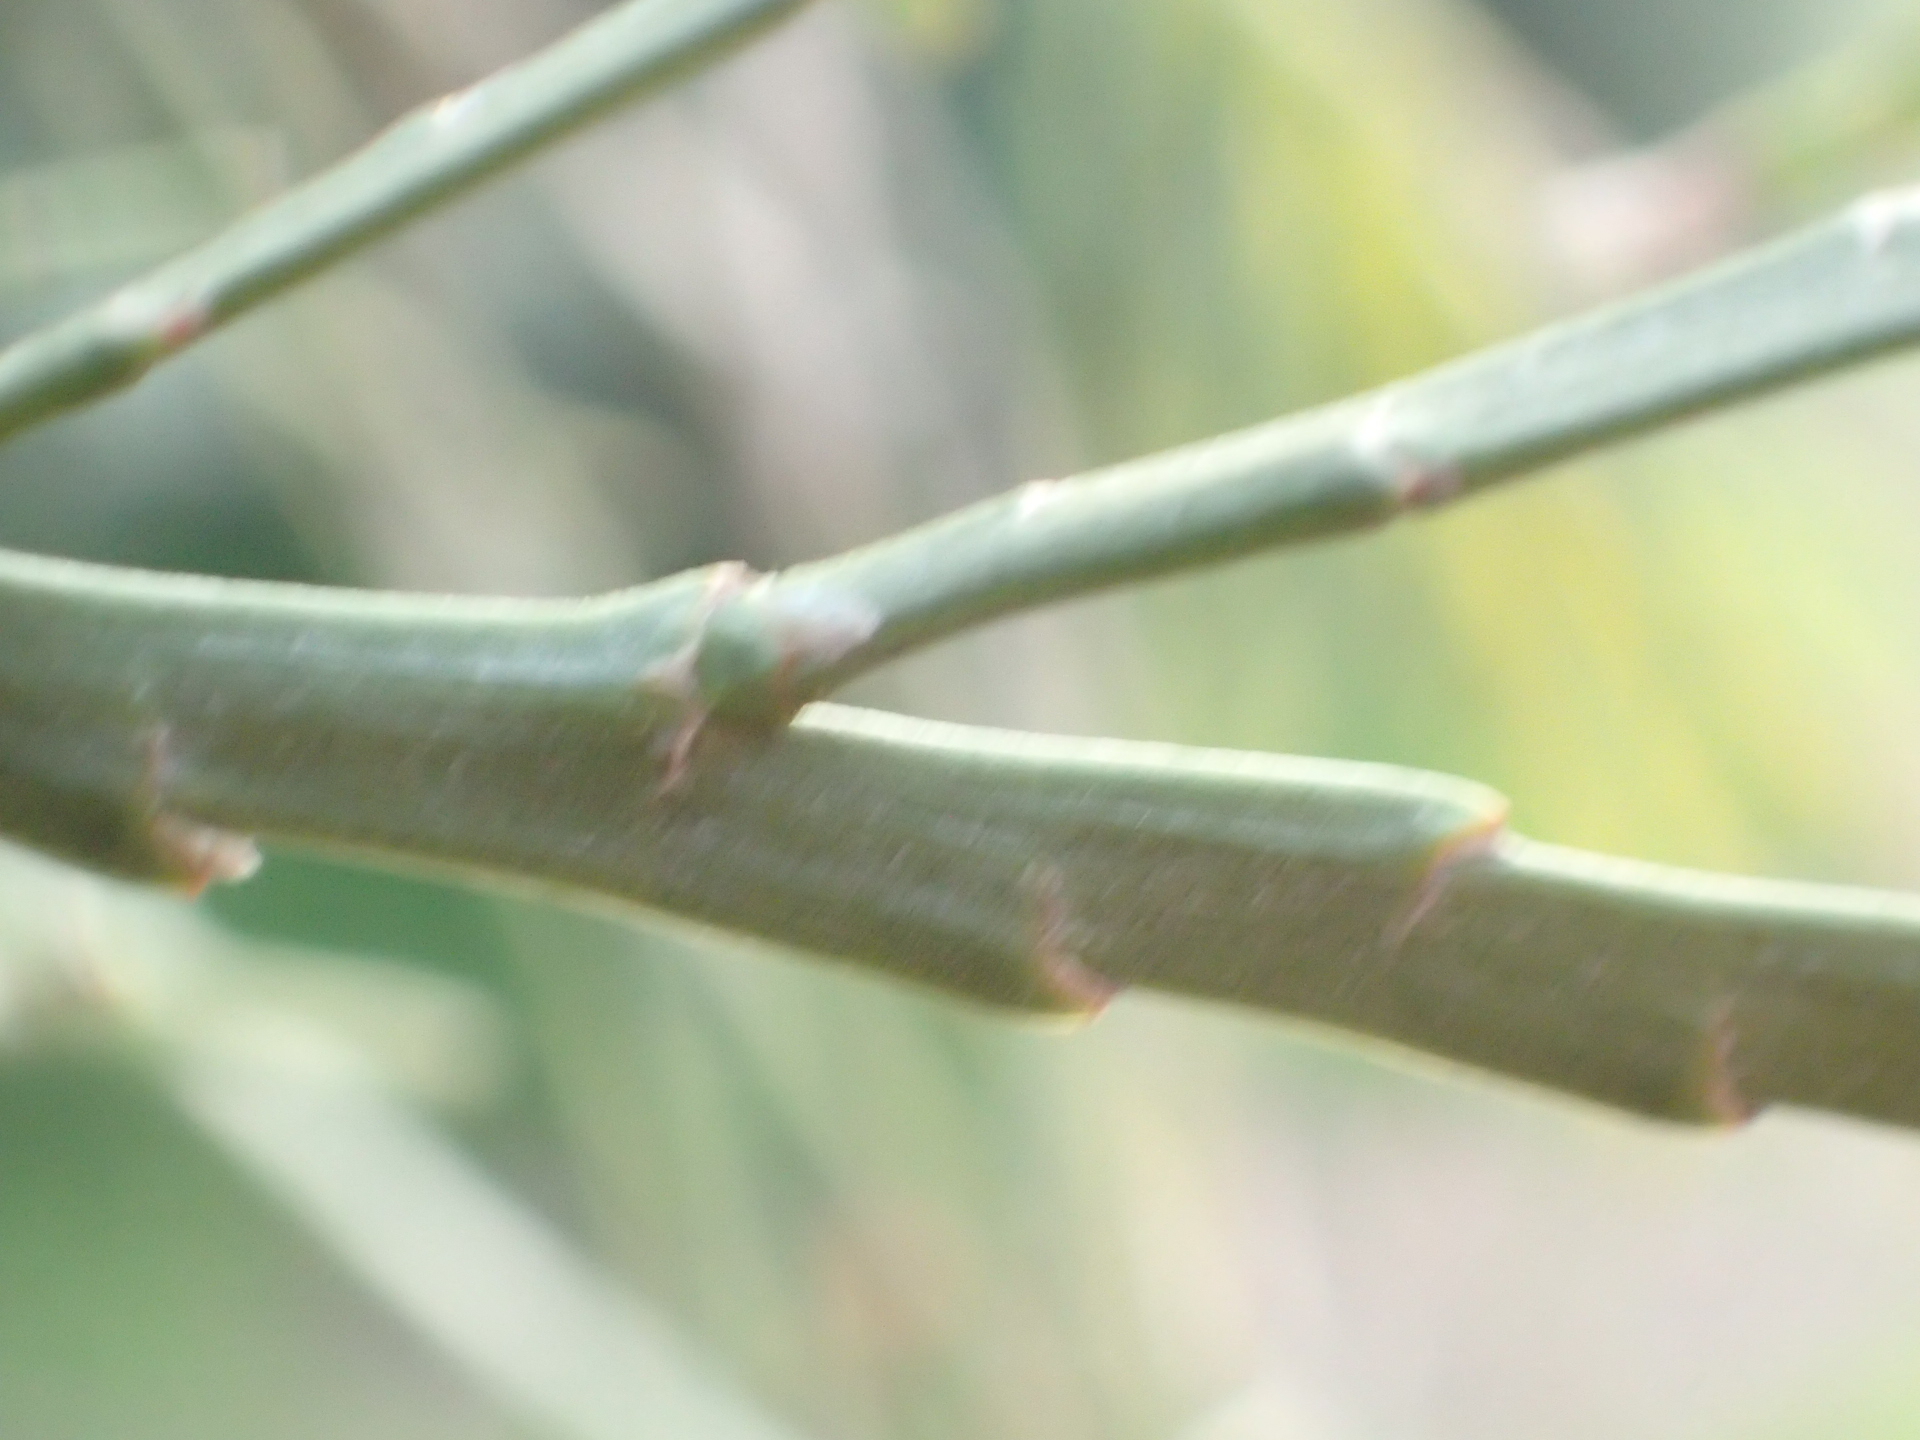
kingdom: Plantae
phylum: Tracheophyta
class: Magnoliopsida
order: Fabales
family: Fabaceae
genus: Carmichaelia
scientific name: Carmichaelia australis
